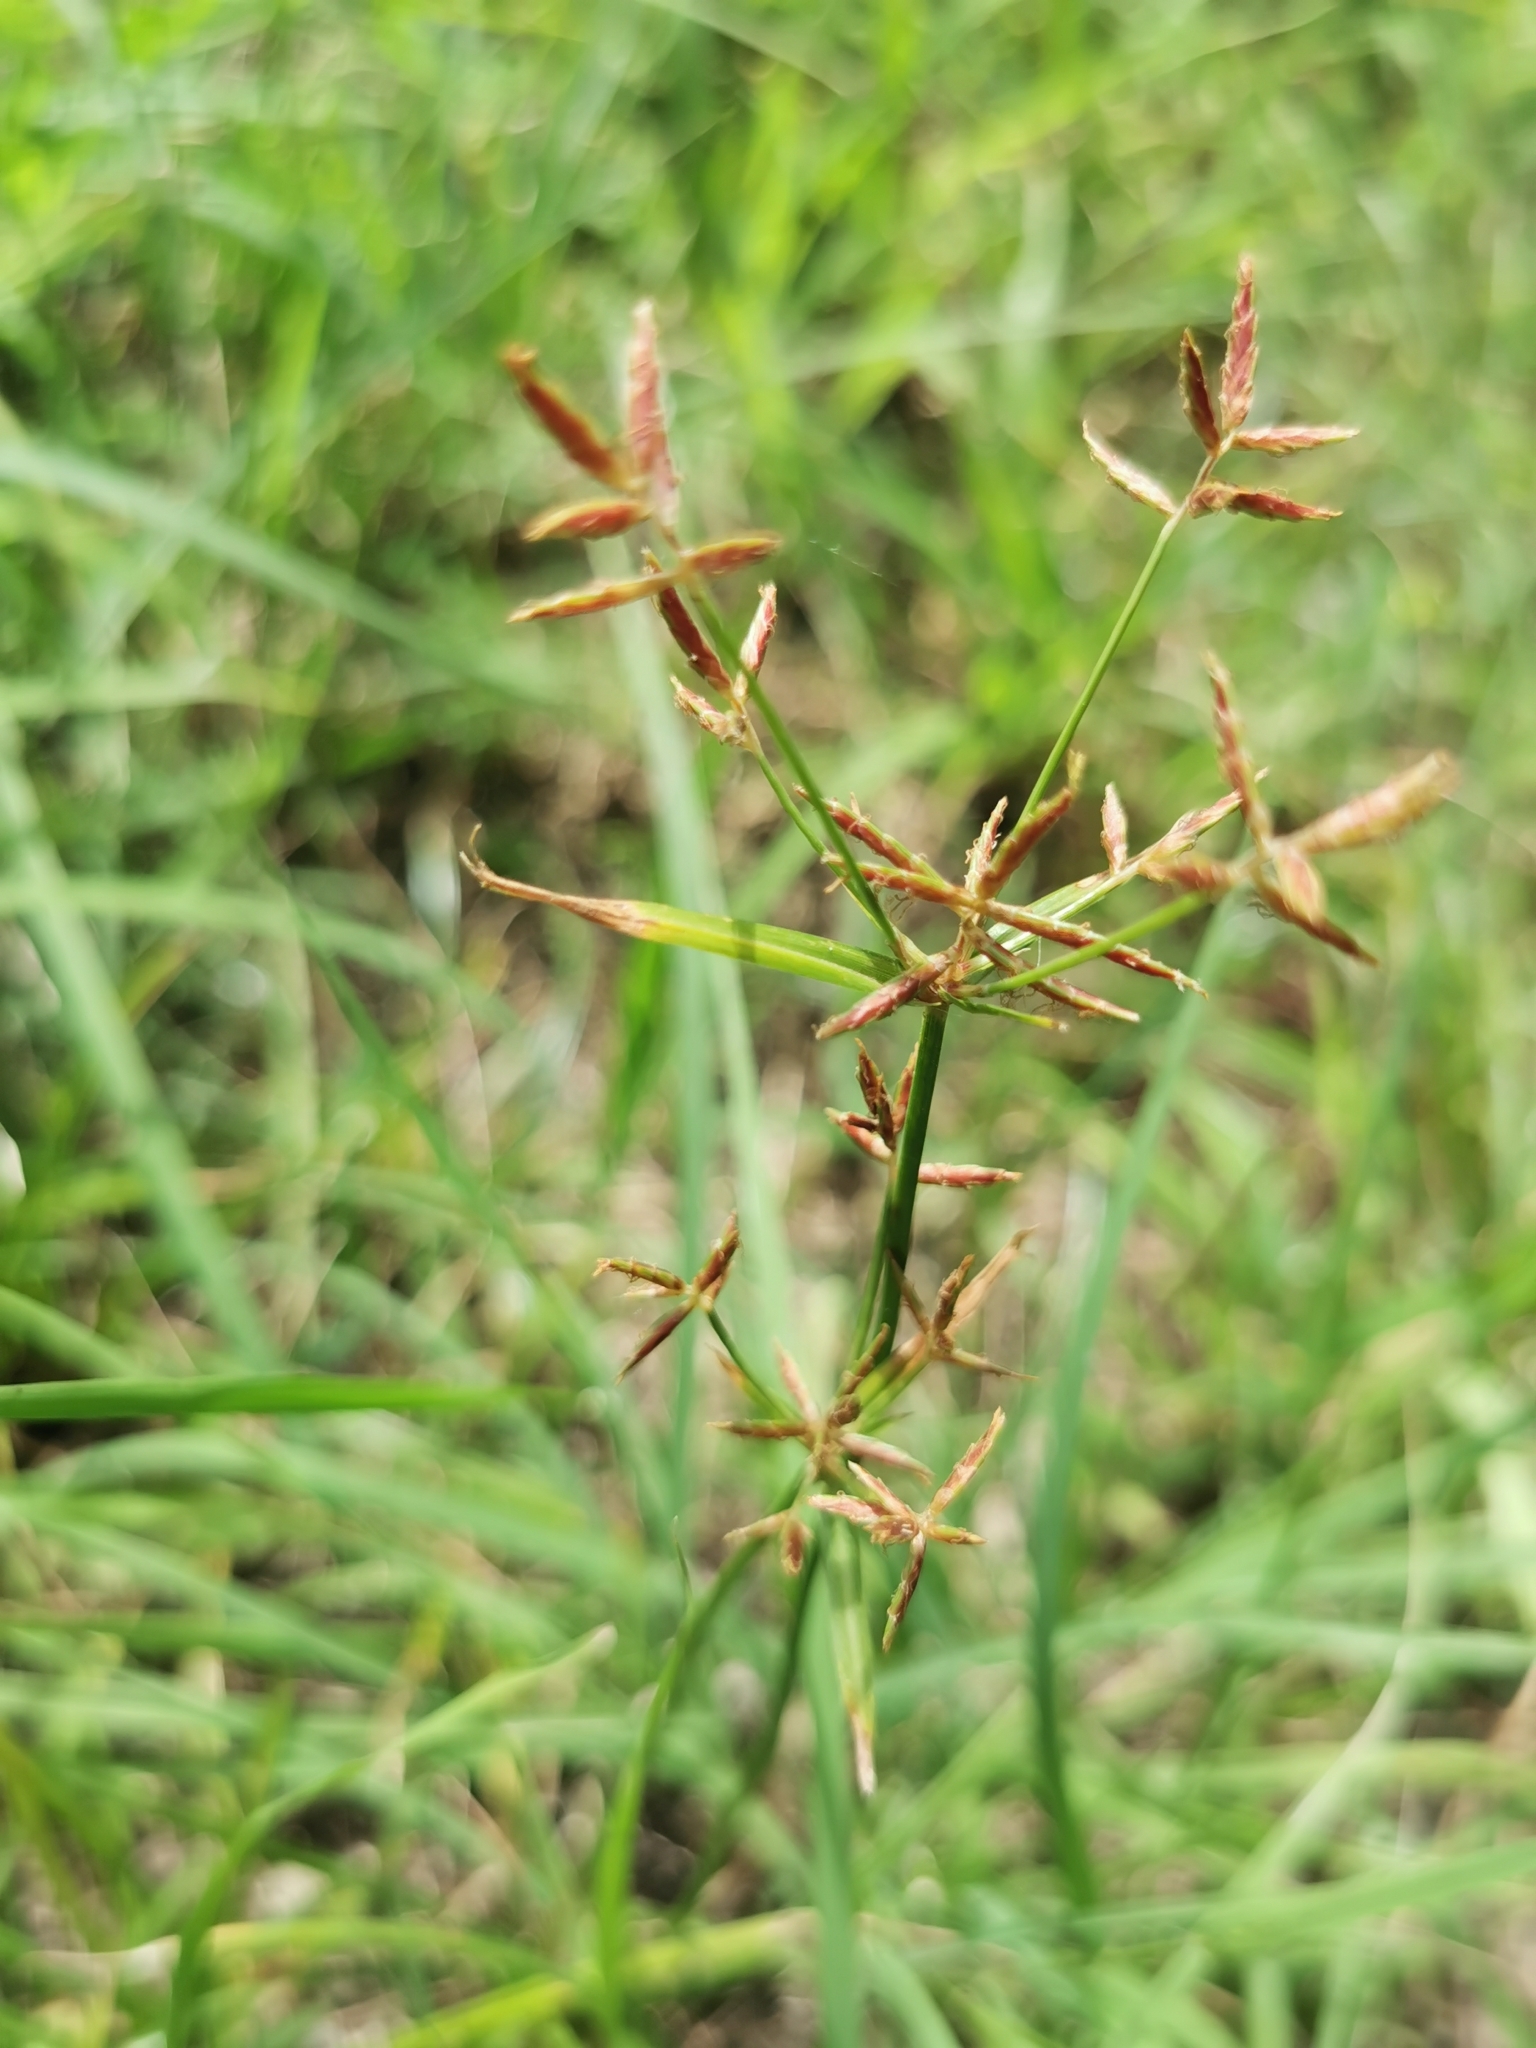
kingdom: Plantae
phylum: Tracheophyta
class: Liliopsida
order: Poales
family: Cyperaceae
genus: Cyperus
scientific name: Cyperus rotundus
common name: Nutgrass
